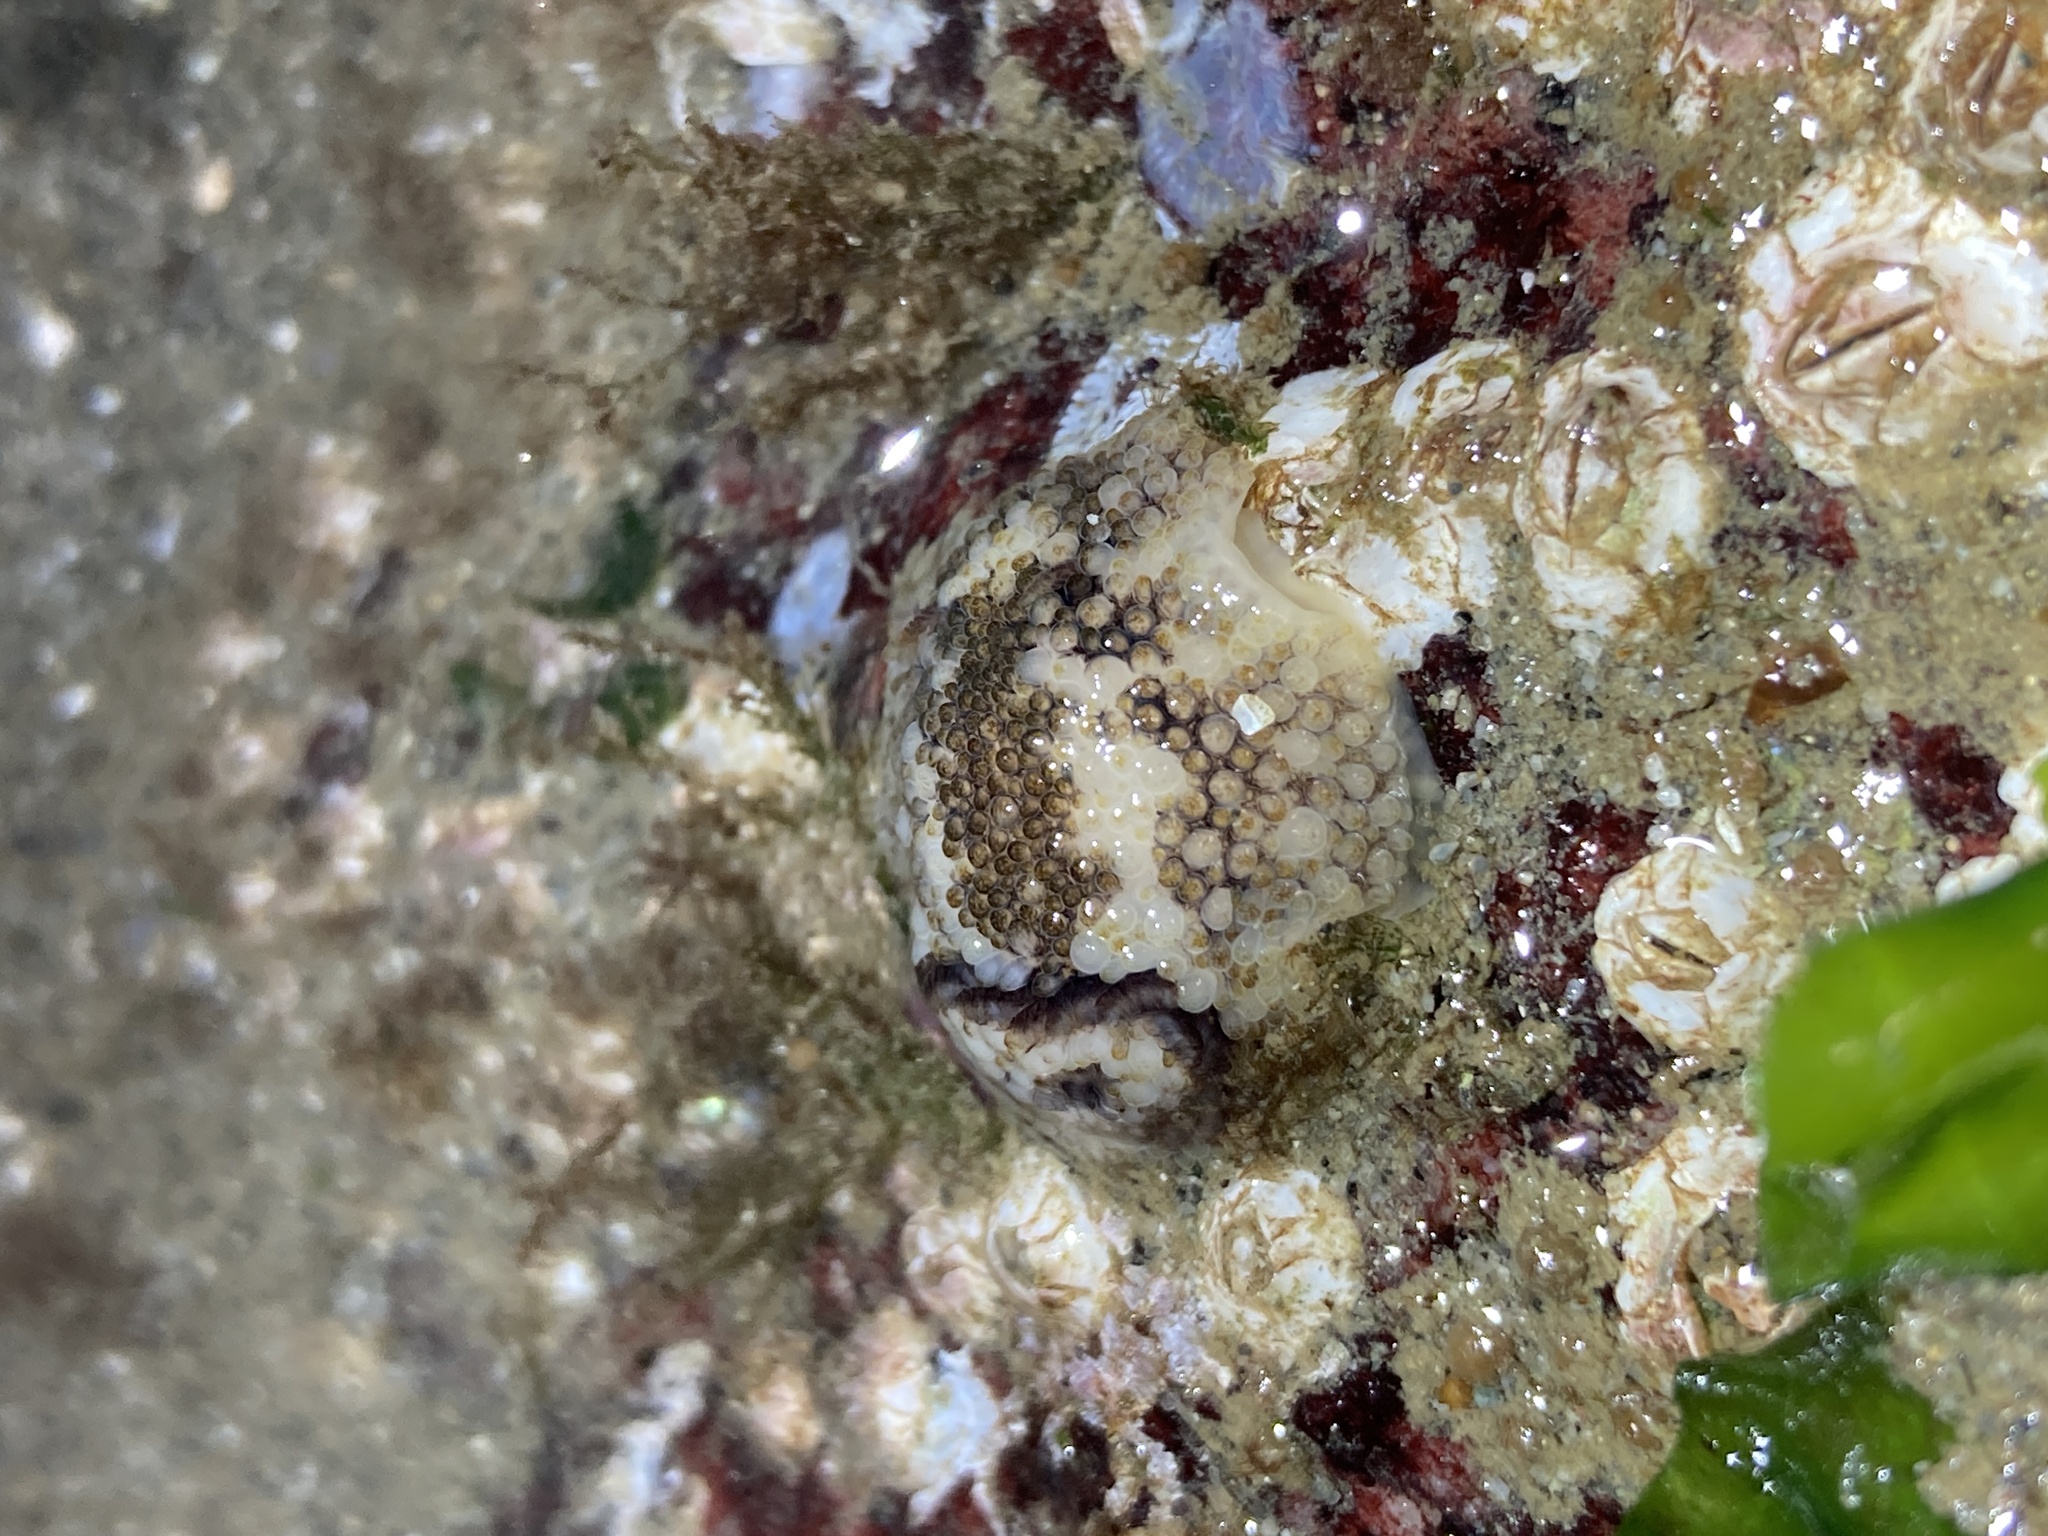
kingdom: Animalia
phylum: Mollusca
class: Gastropoda
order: Nudibranchia
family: Onchidorididae
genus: Onchidoris
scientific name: Onchidoris bilamellata
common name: Barnacle-eating onchidoris
